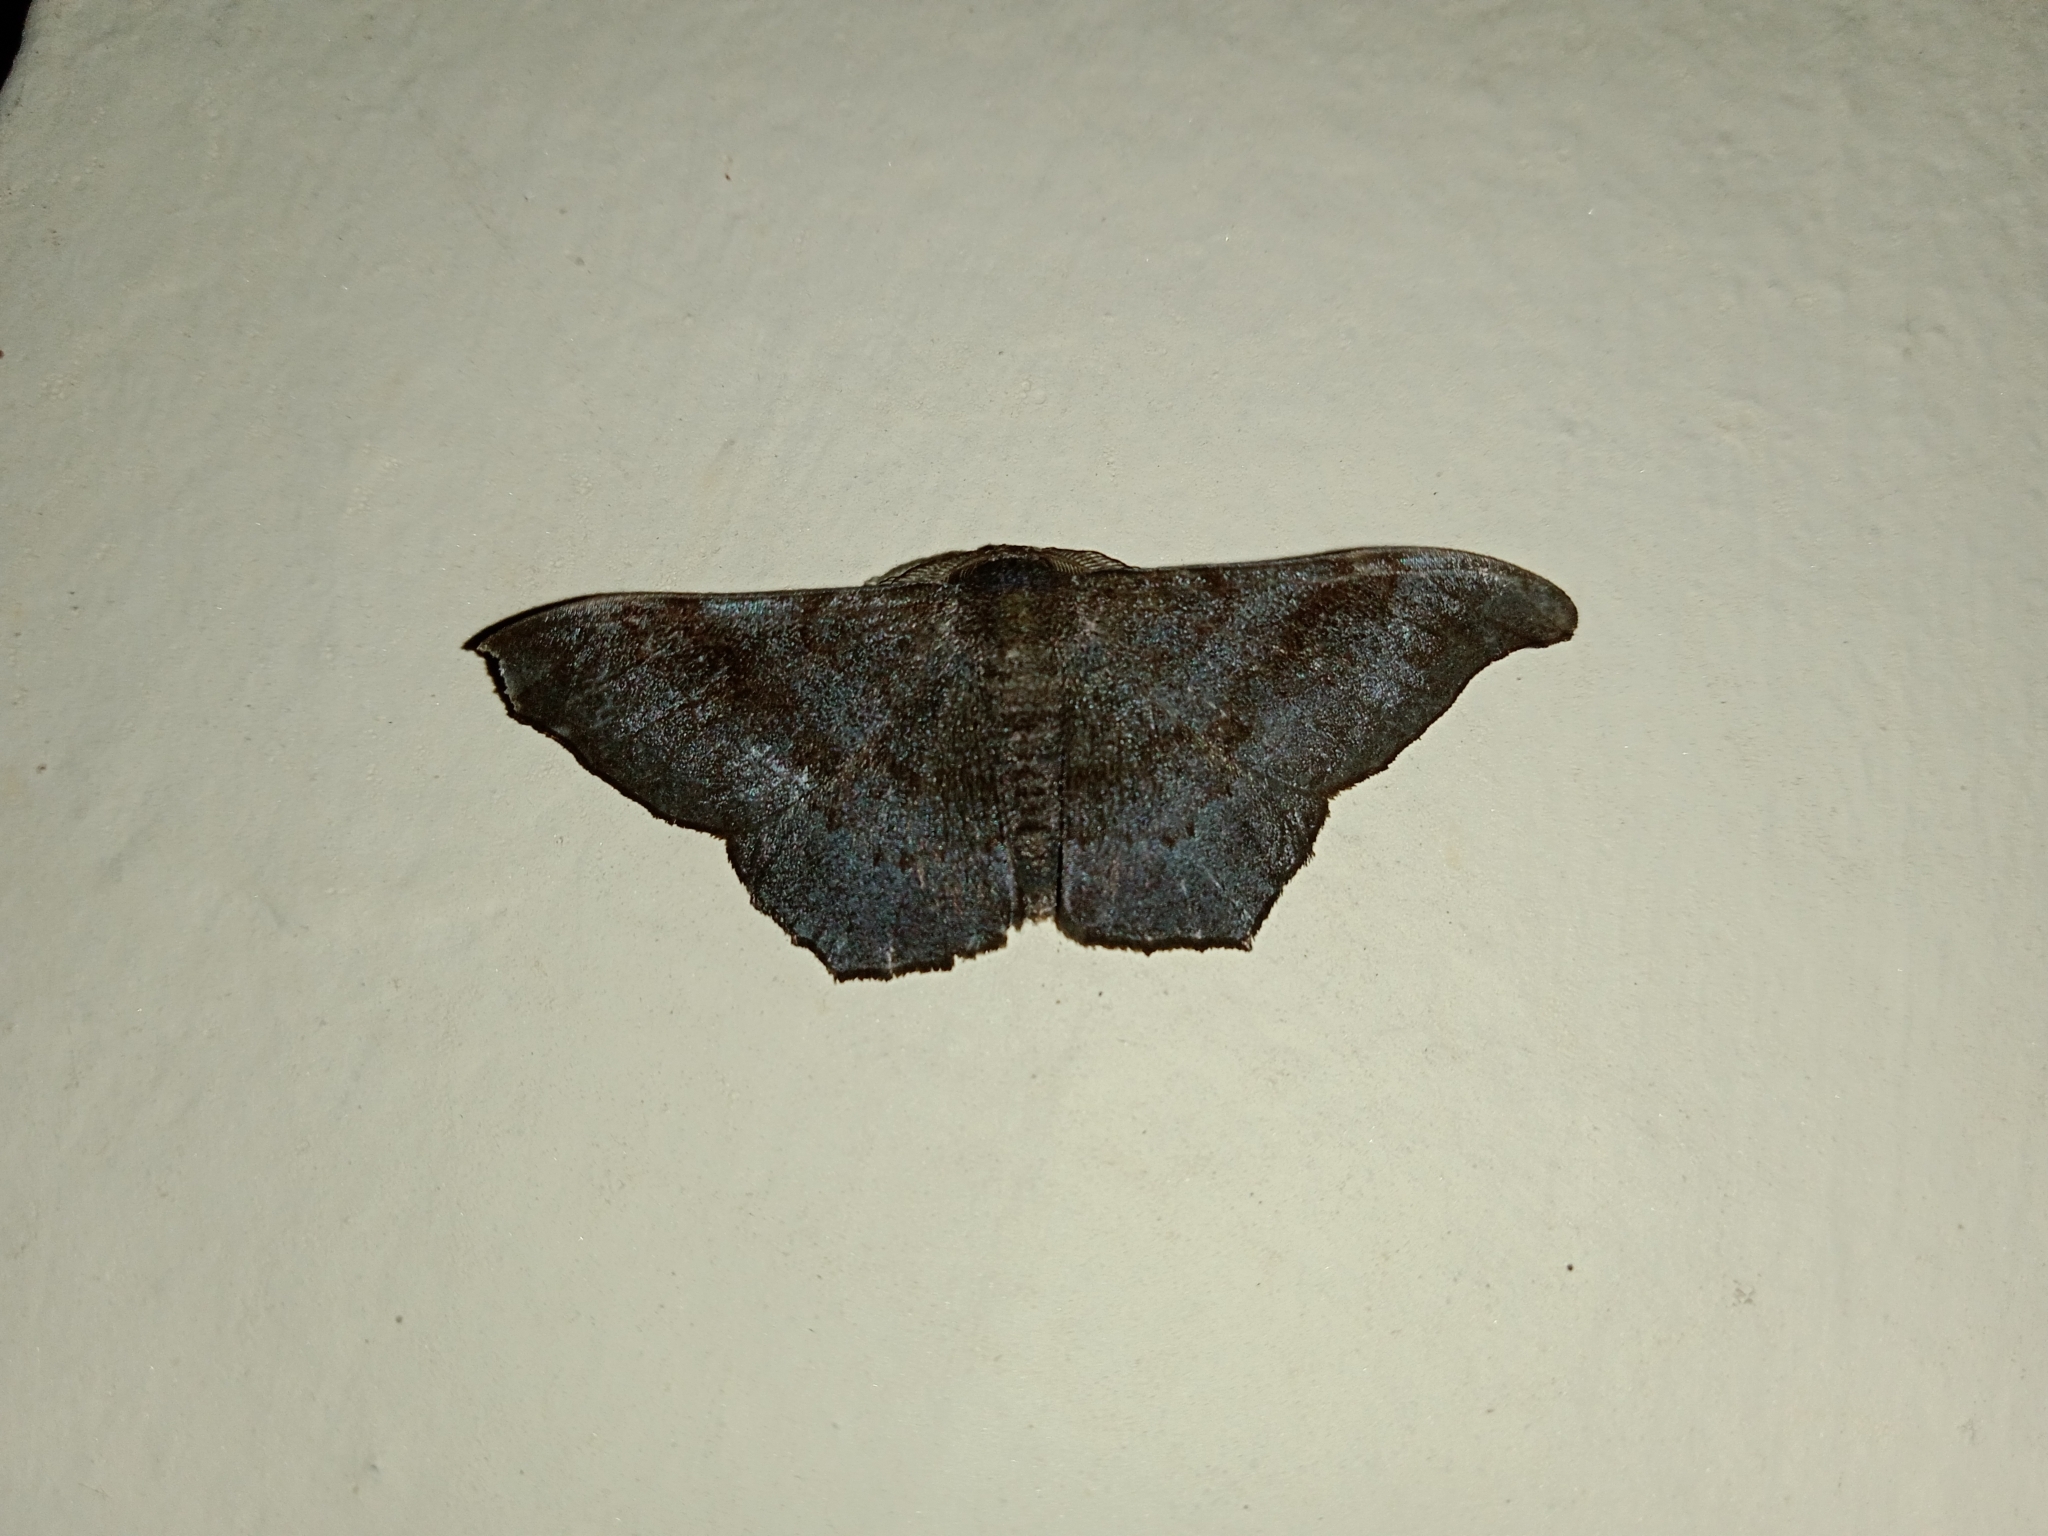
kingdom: Animalia
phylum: Arthropoda
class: Insecta
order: Lepidoptera
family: Geometridae
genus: Hyposidra
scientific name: Hyposidra talaca
